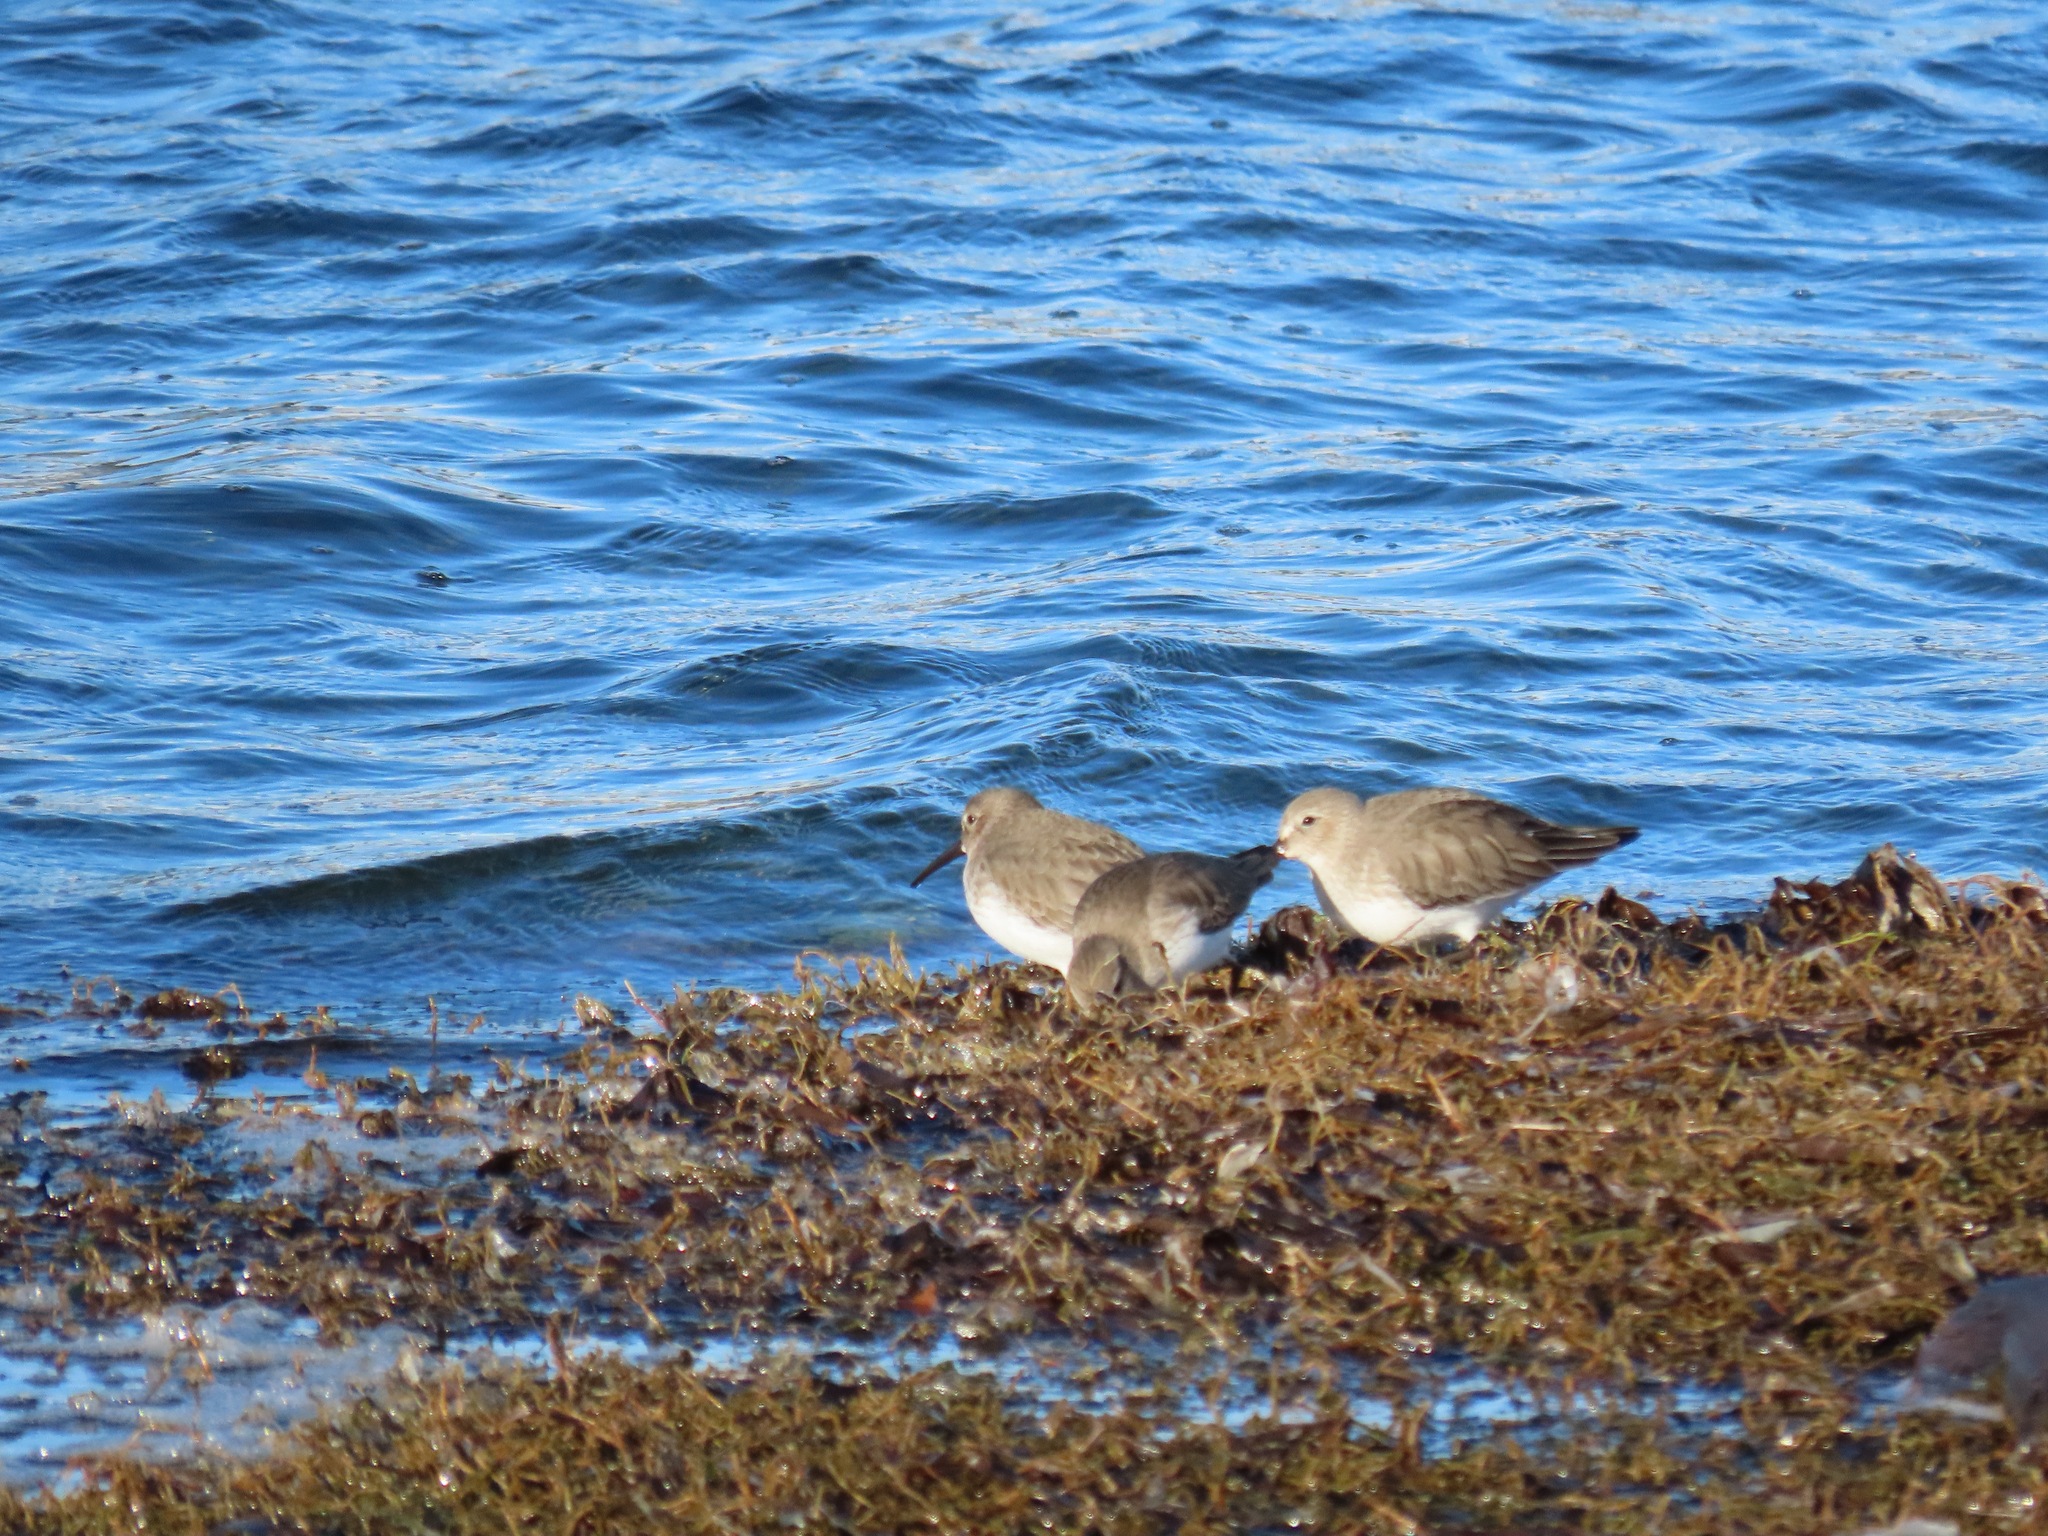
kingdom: Animalia
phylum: Chordata
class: Aves
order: Charadriiformes
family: Scolopacidae
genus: Calidris
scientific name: Calidris alpina
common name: Dunlin
